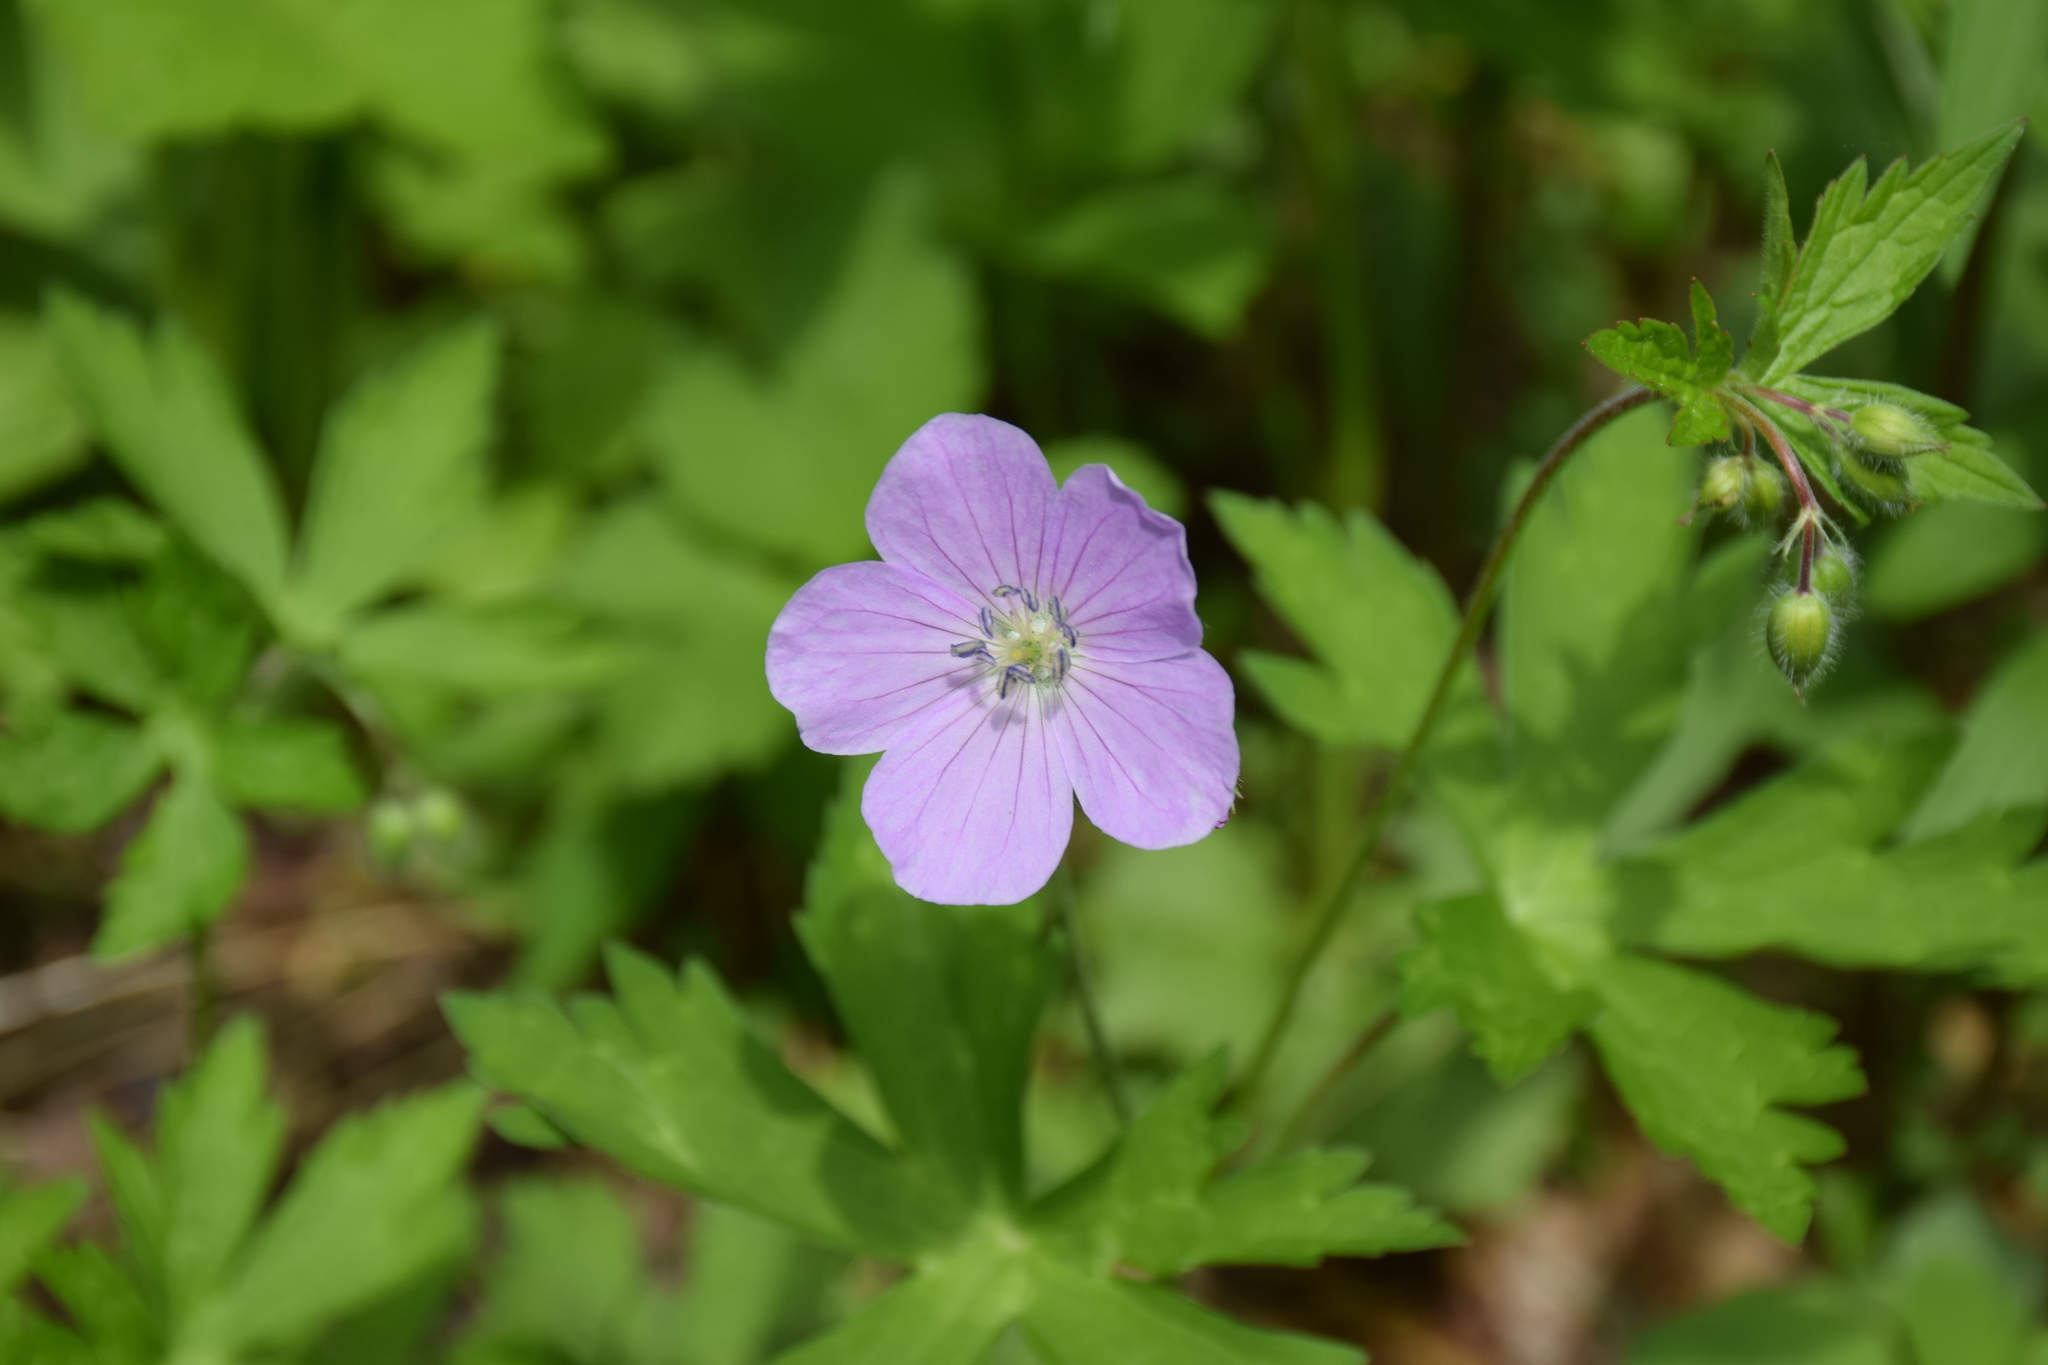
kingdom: Plantae
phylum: Tracheophyta
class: Magnoliopsida
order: Geraniales
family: Geraniaceae
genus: Geranium
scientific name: Geranium maculatum
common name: Spotted geranium
